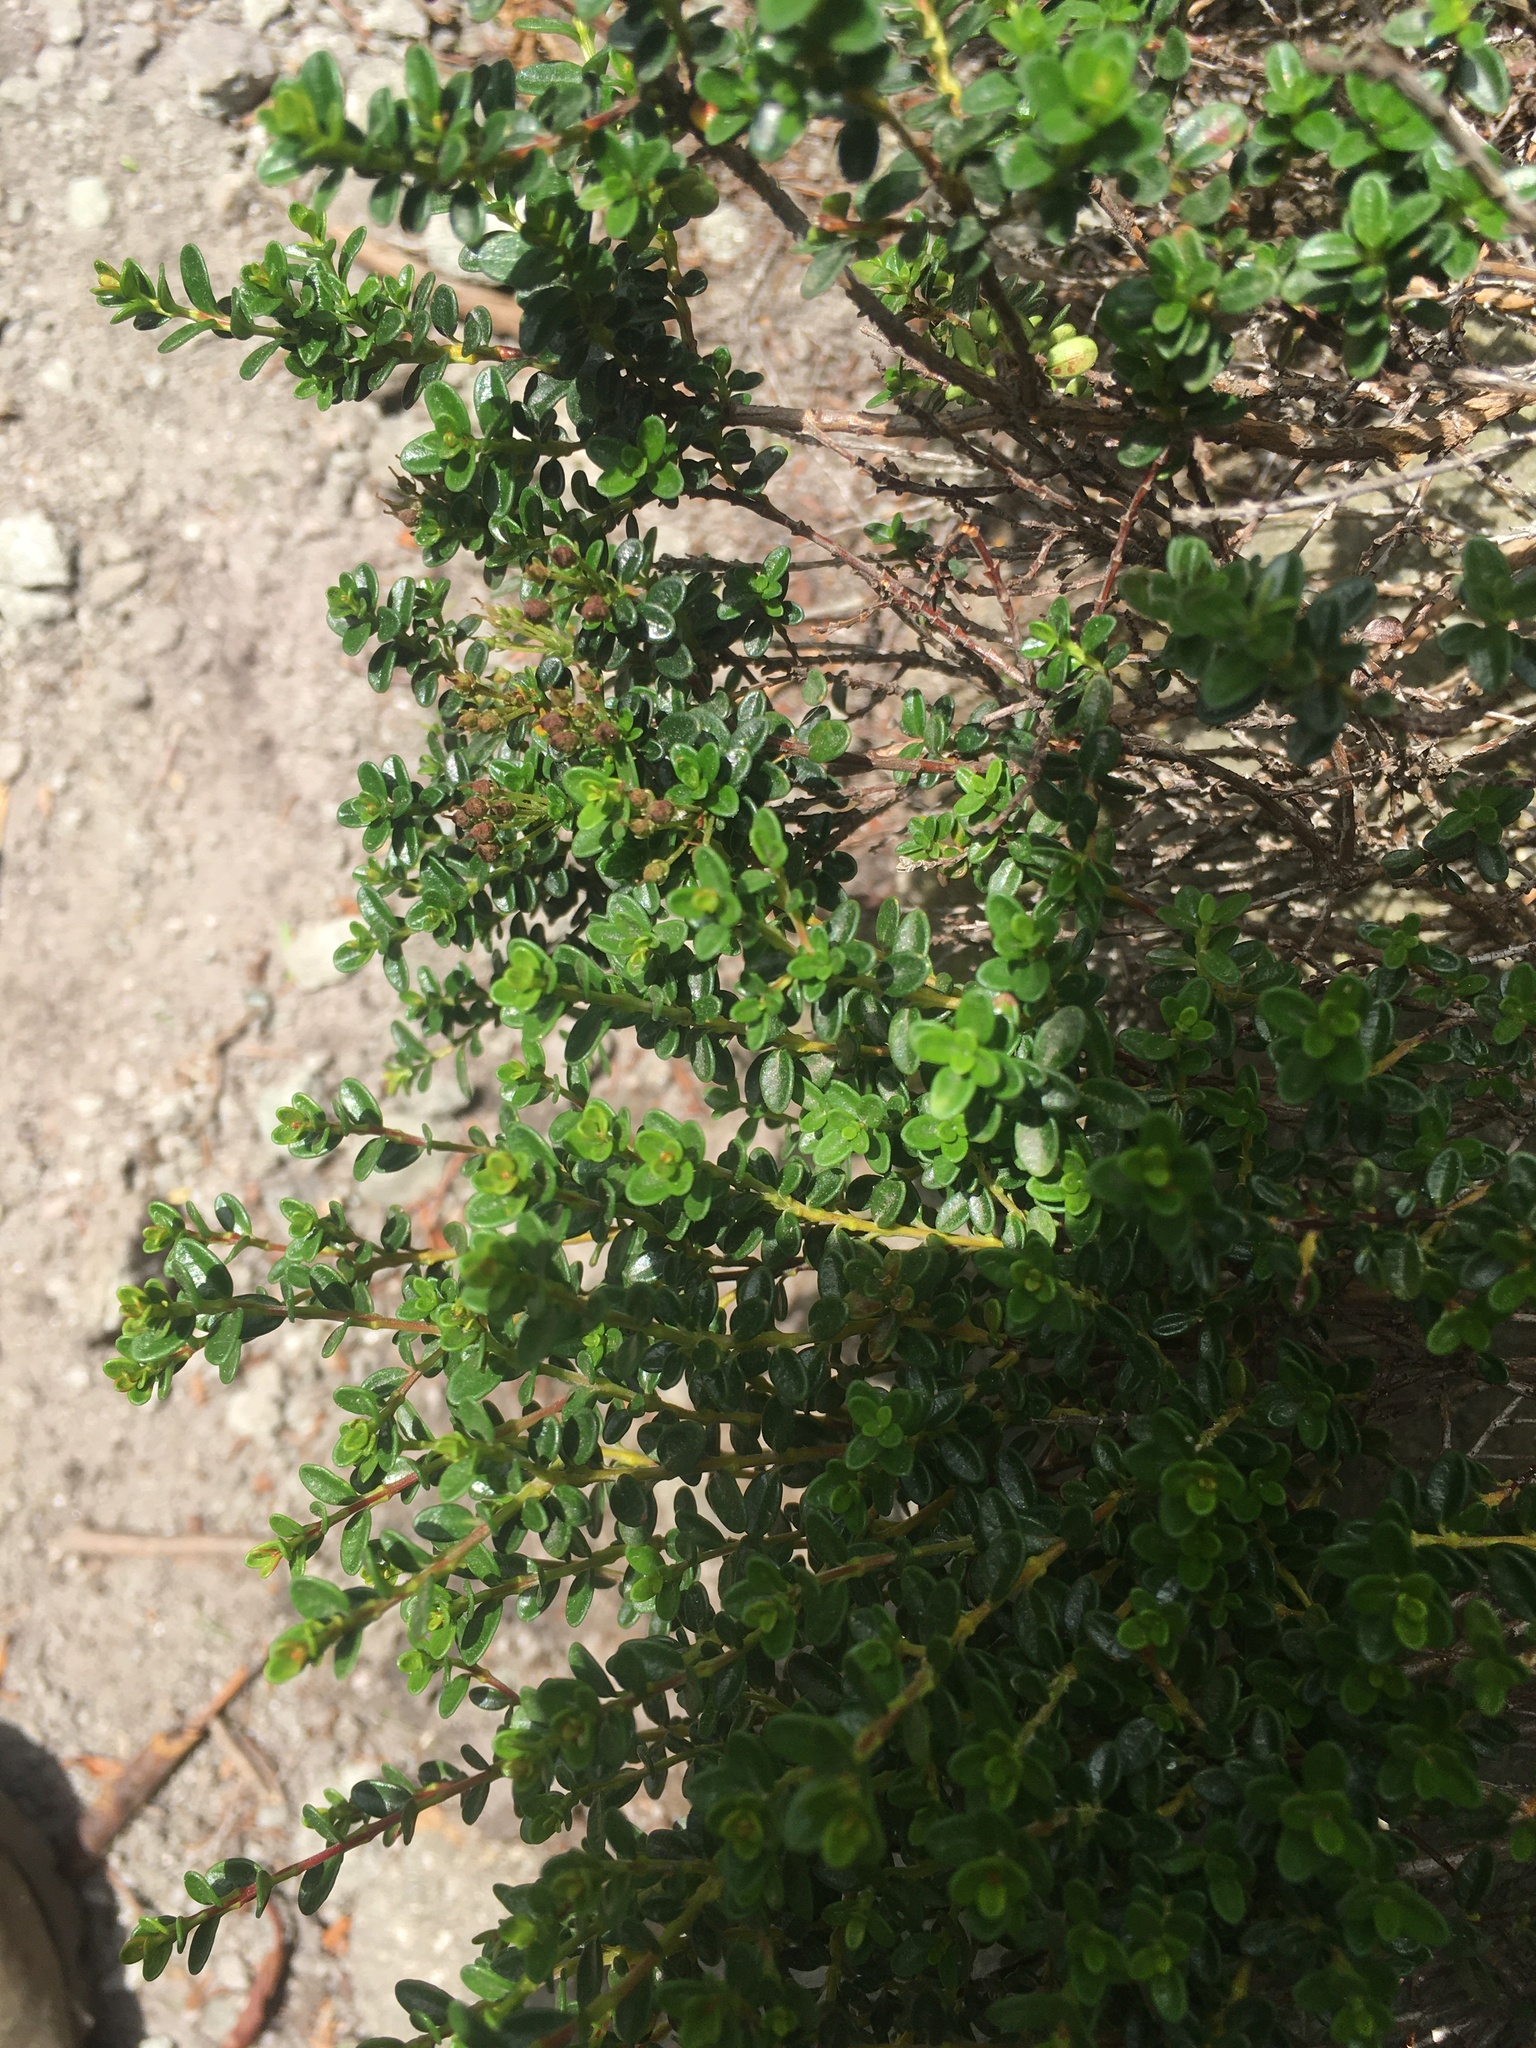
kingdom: Plantae
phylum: Tracheophyta
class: Magnoliopsida
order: Ericales
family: Ericaceae
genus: Kalmia
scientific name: Kalmia buxifolia
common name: Sandmyrtle
